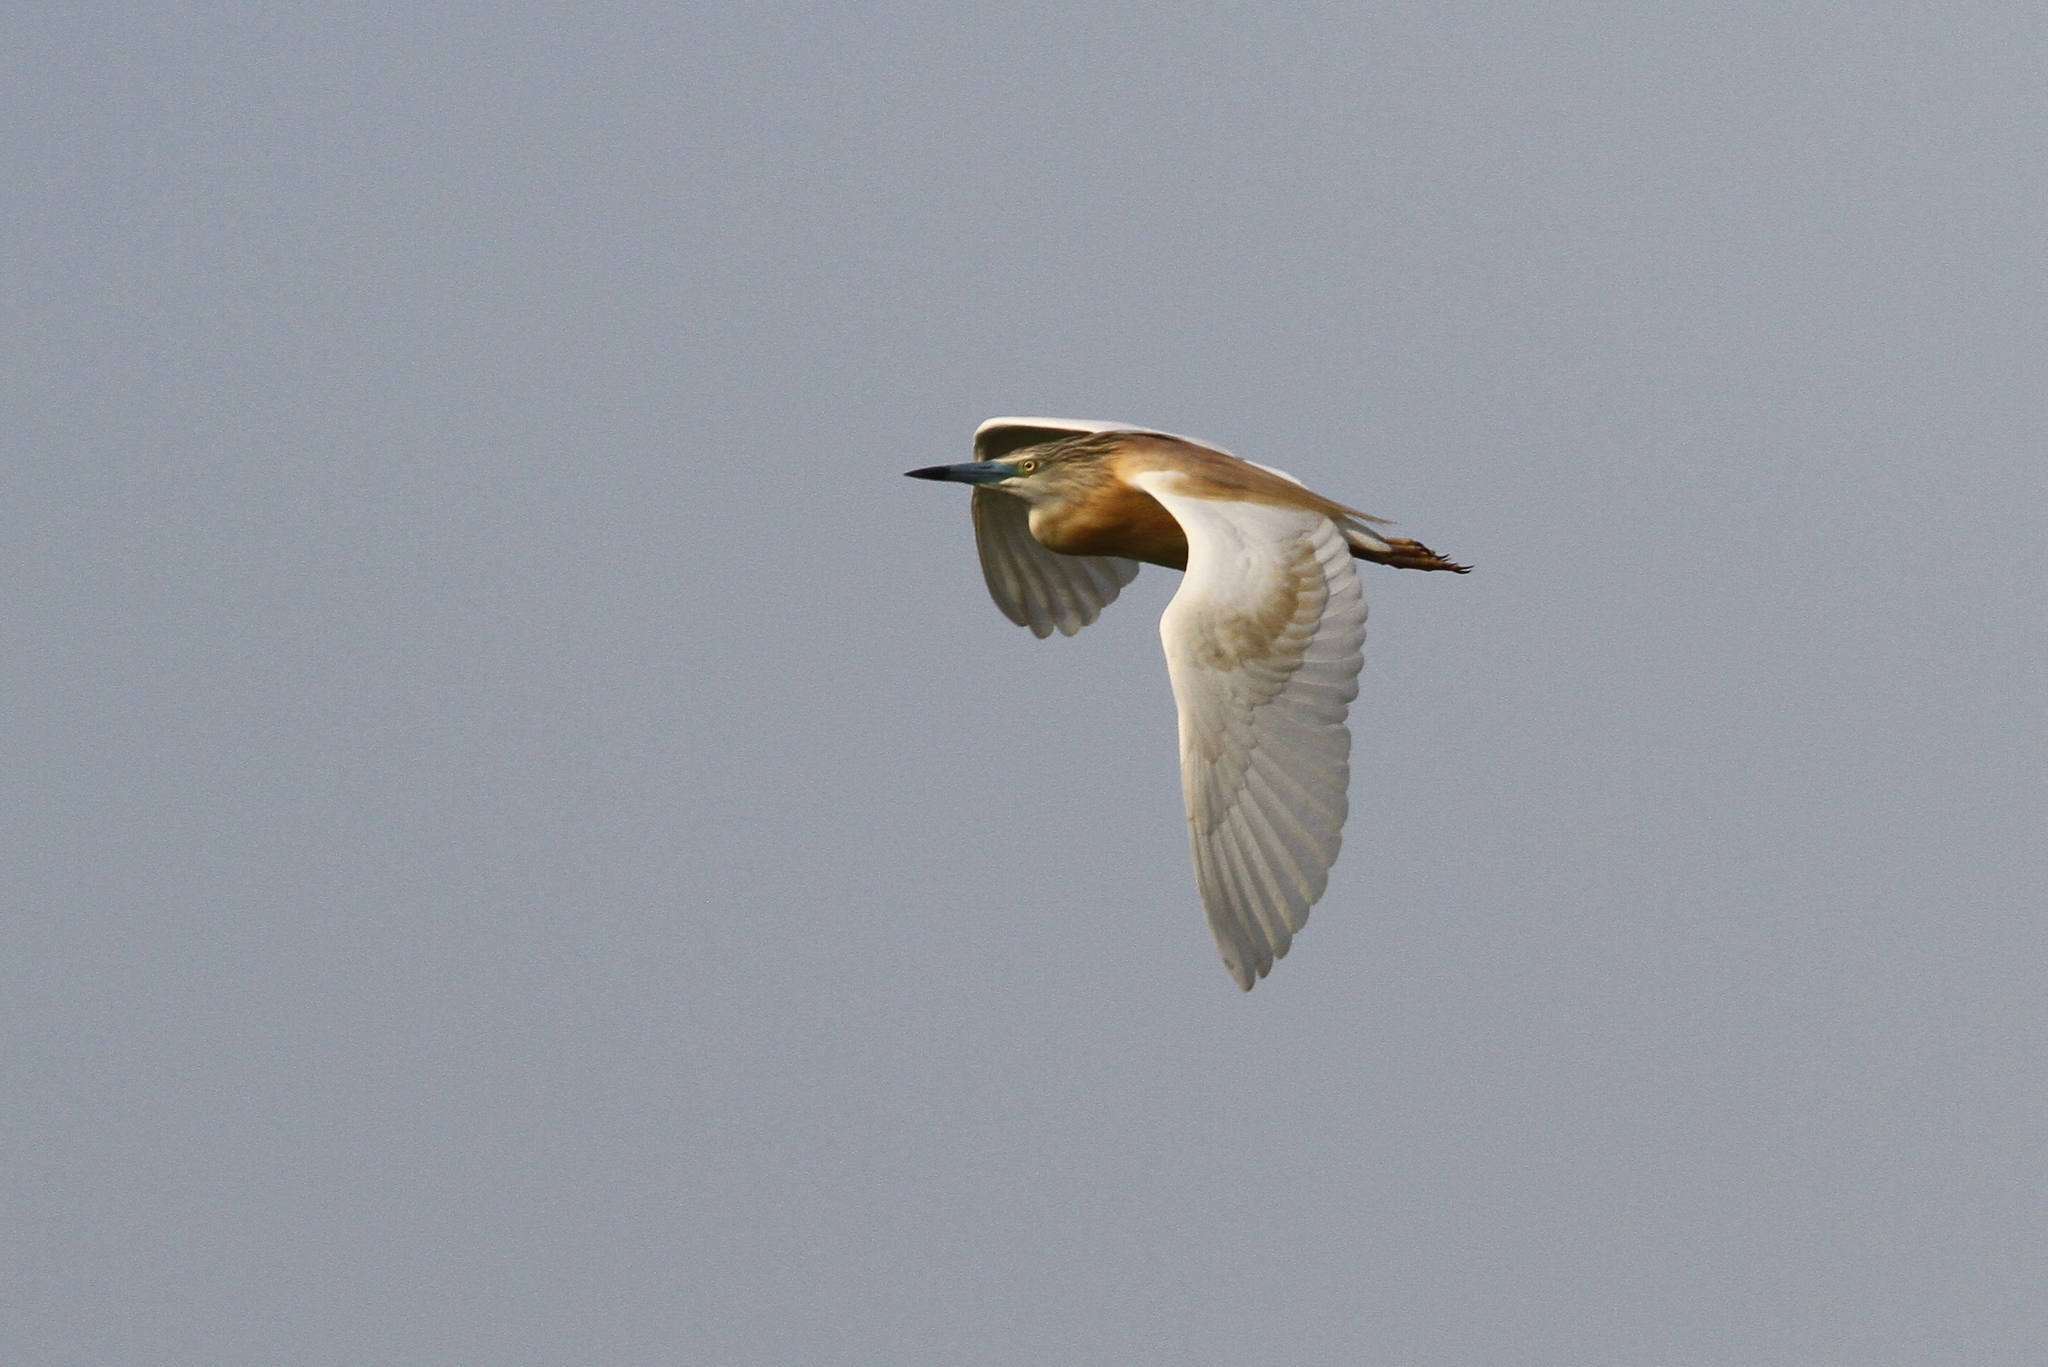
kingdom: Animalia
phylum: Chordata
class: Aves
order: Pelecaniformes
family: Ardeidae
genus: Ardeola
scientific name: Ardeola ralloides
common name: Squacco heron
